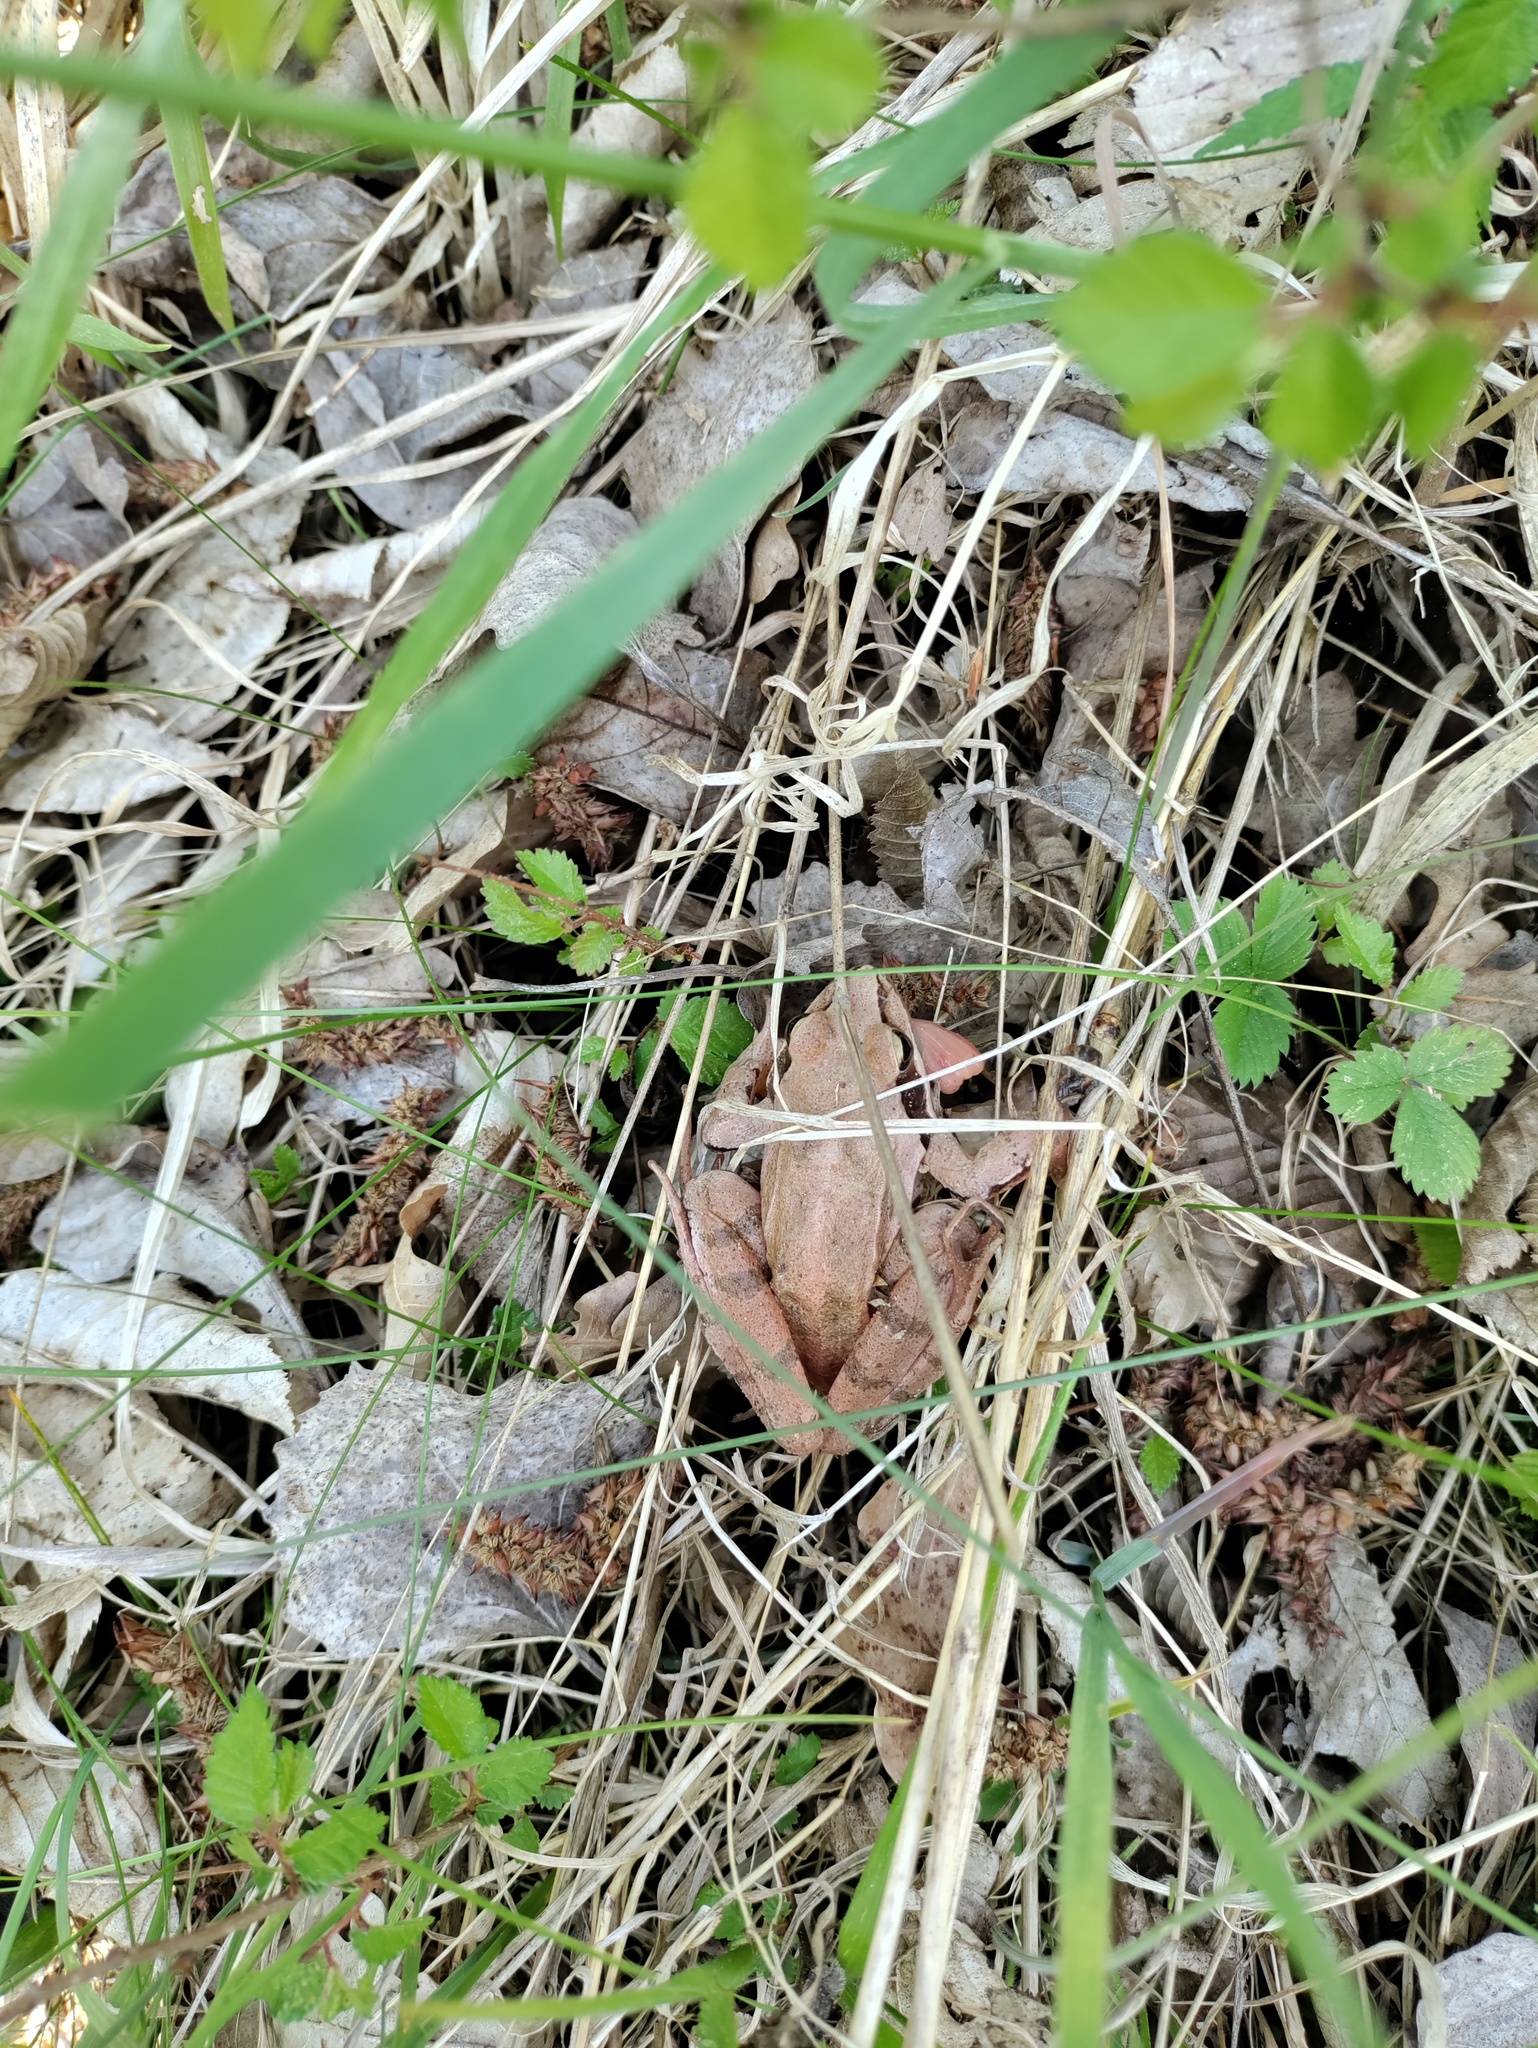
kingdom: Animalia
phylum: Chordata
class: Amphibia
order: Anura
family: Ranidae
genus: Rana
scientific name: Rana dalmatina
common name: Agile frog
